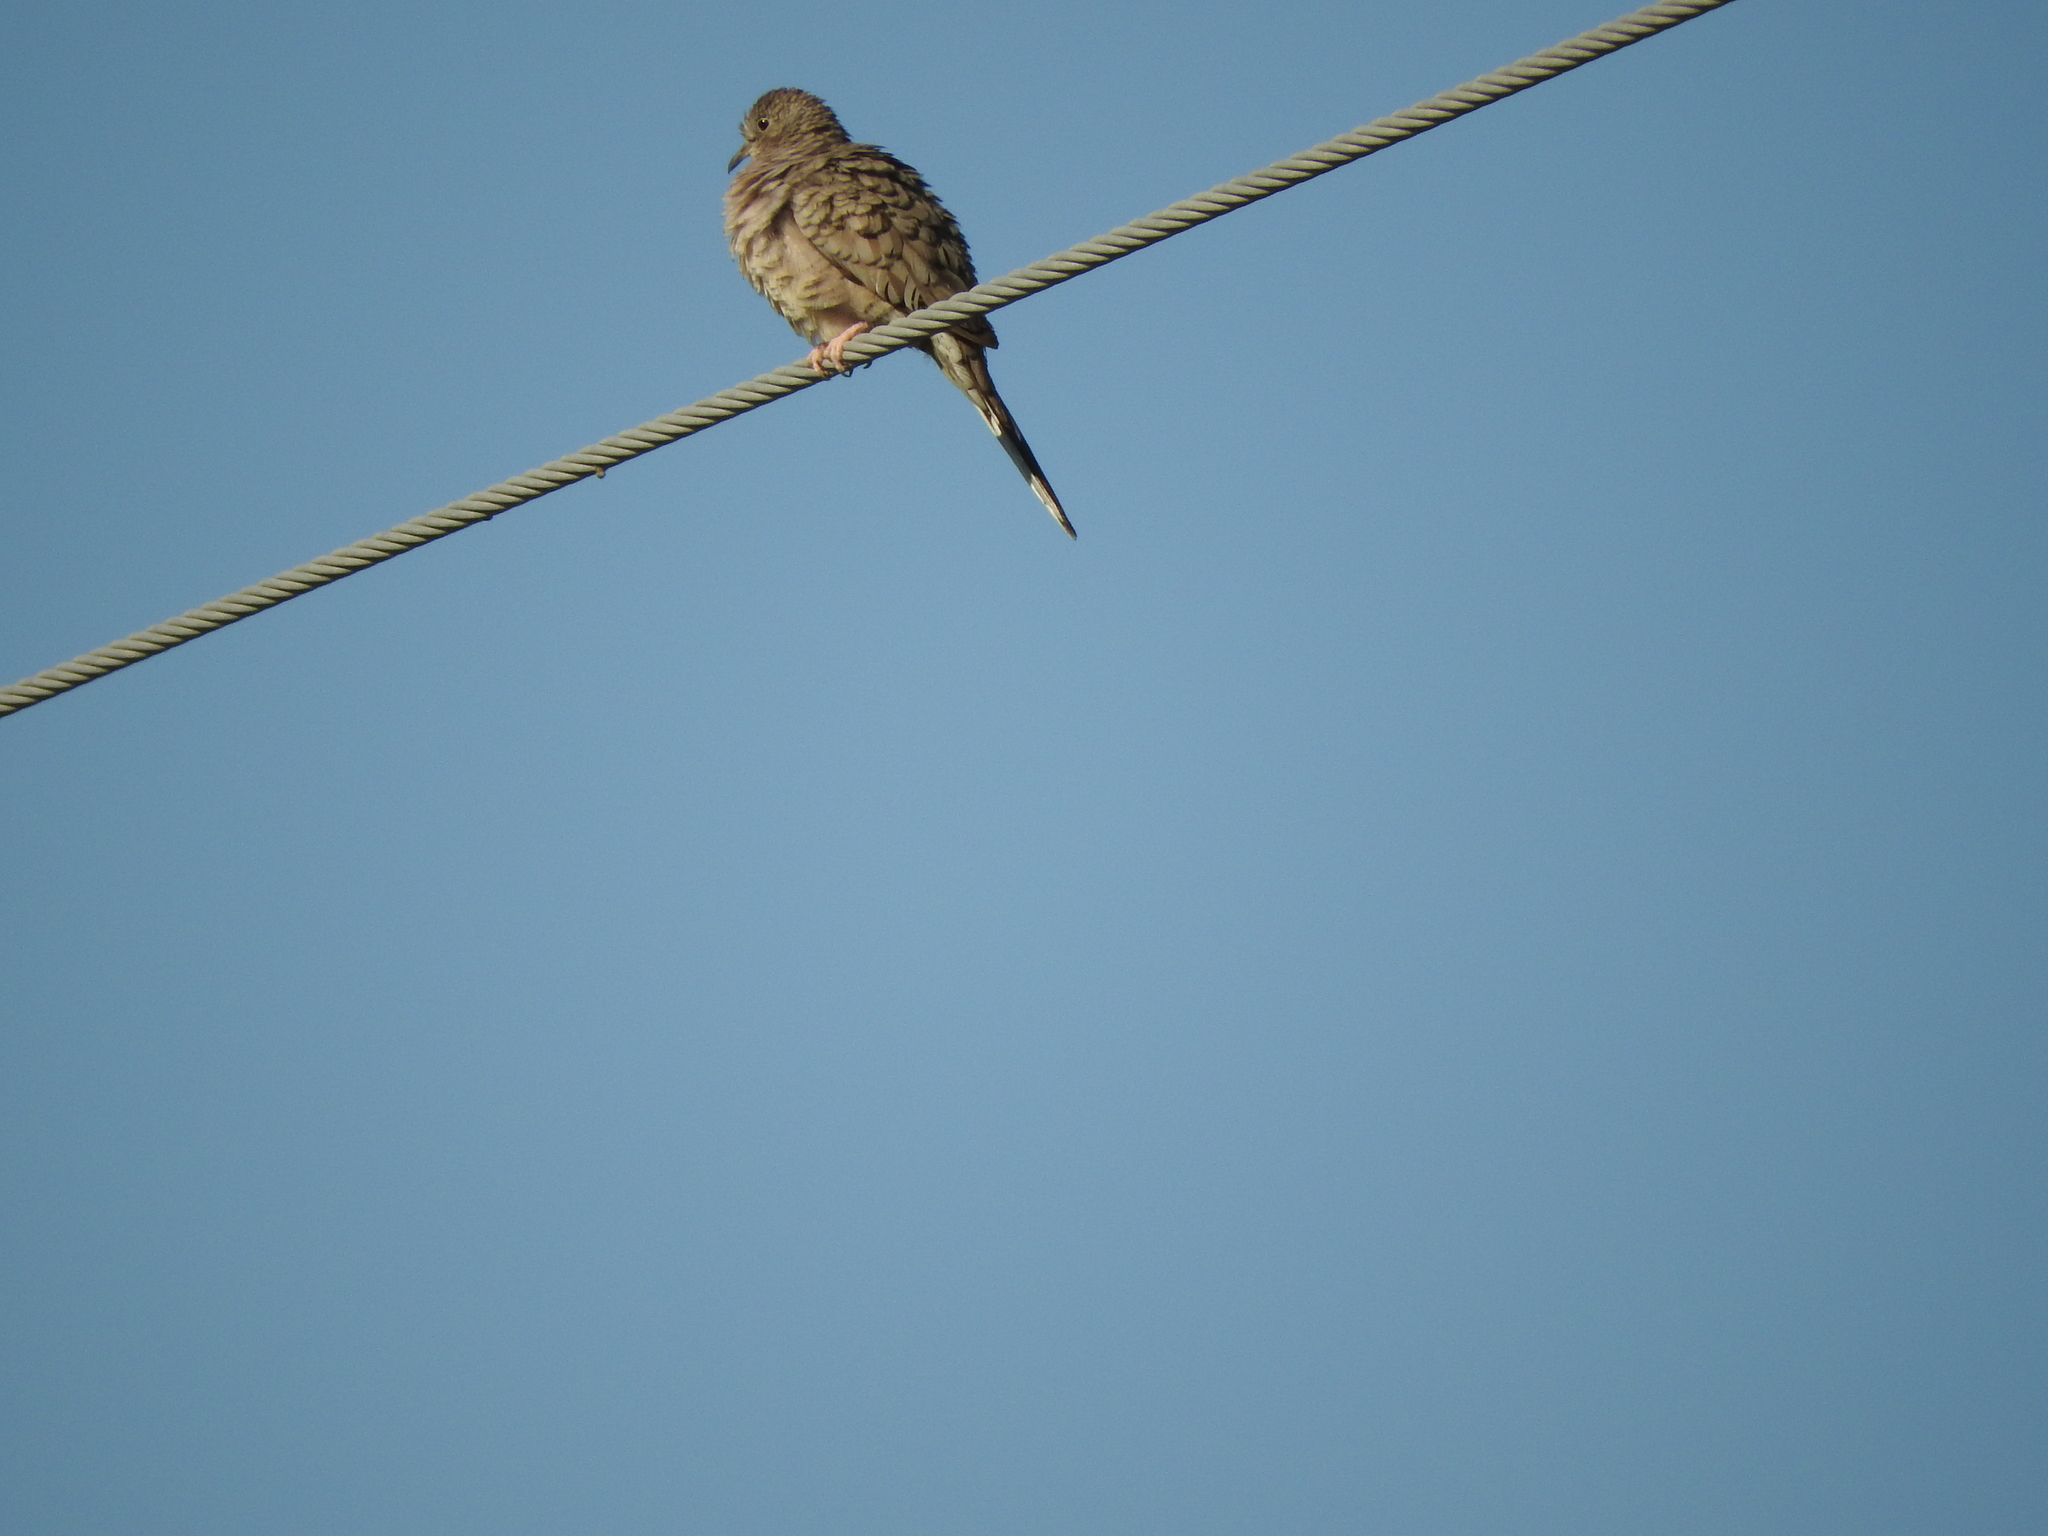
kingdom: Animalia
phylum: Chordata
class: Aves
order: Columbiformes
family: Columbidae
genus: Columbina
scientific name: Columbina inca
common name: Inca dove
